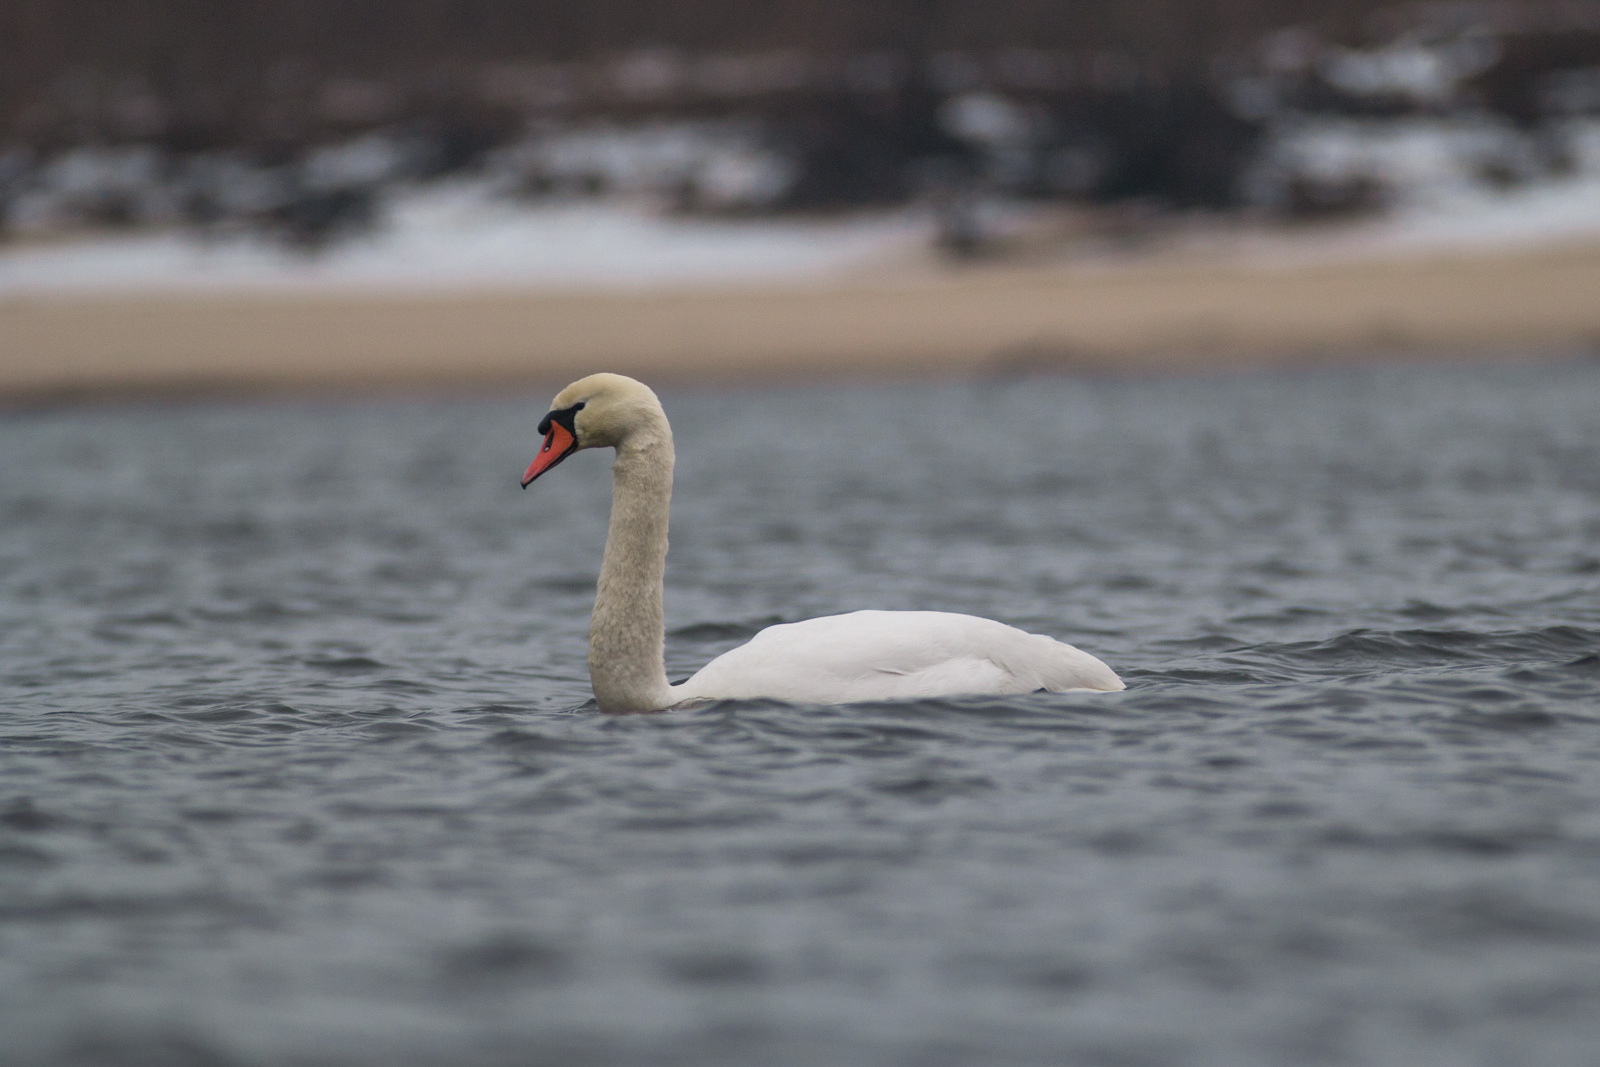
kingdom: Animalia
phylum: Chordata
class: Aves
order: Anseriformes
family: Anatidae
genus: Cygnus
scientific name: Cygnus olor
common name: Mute swan
